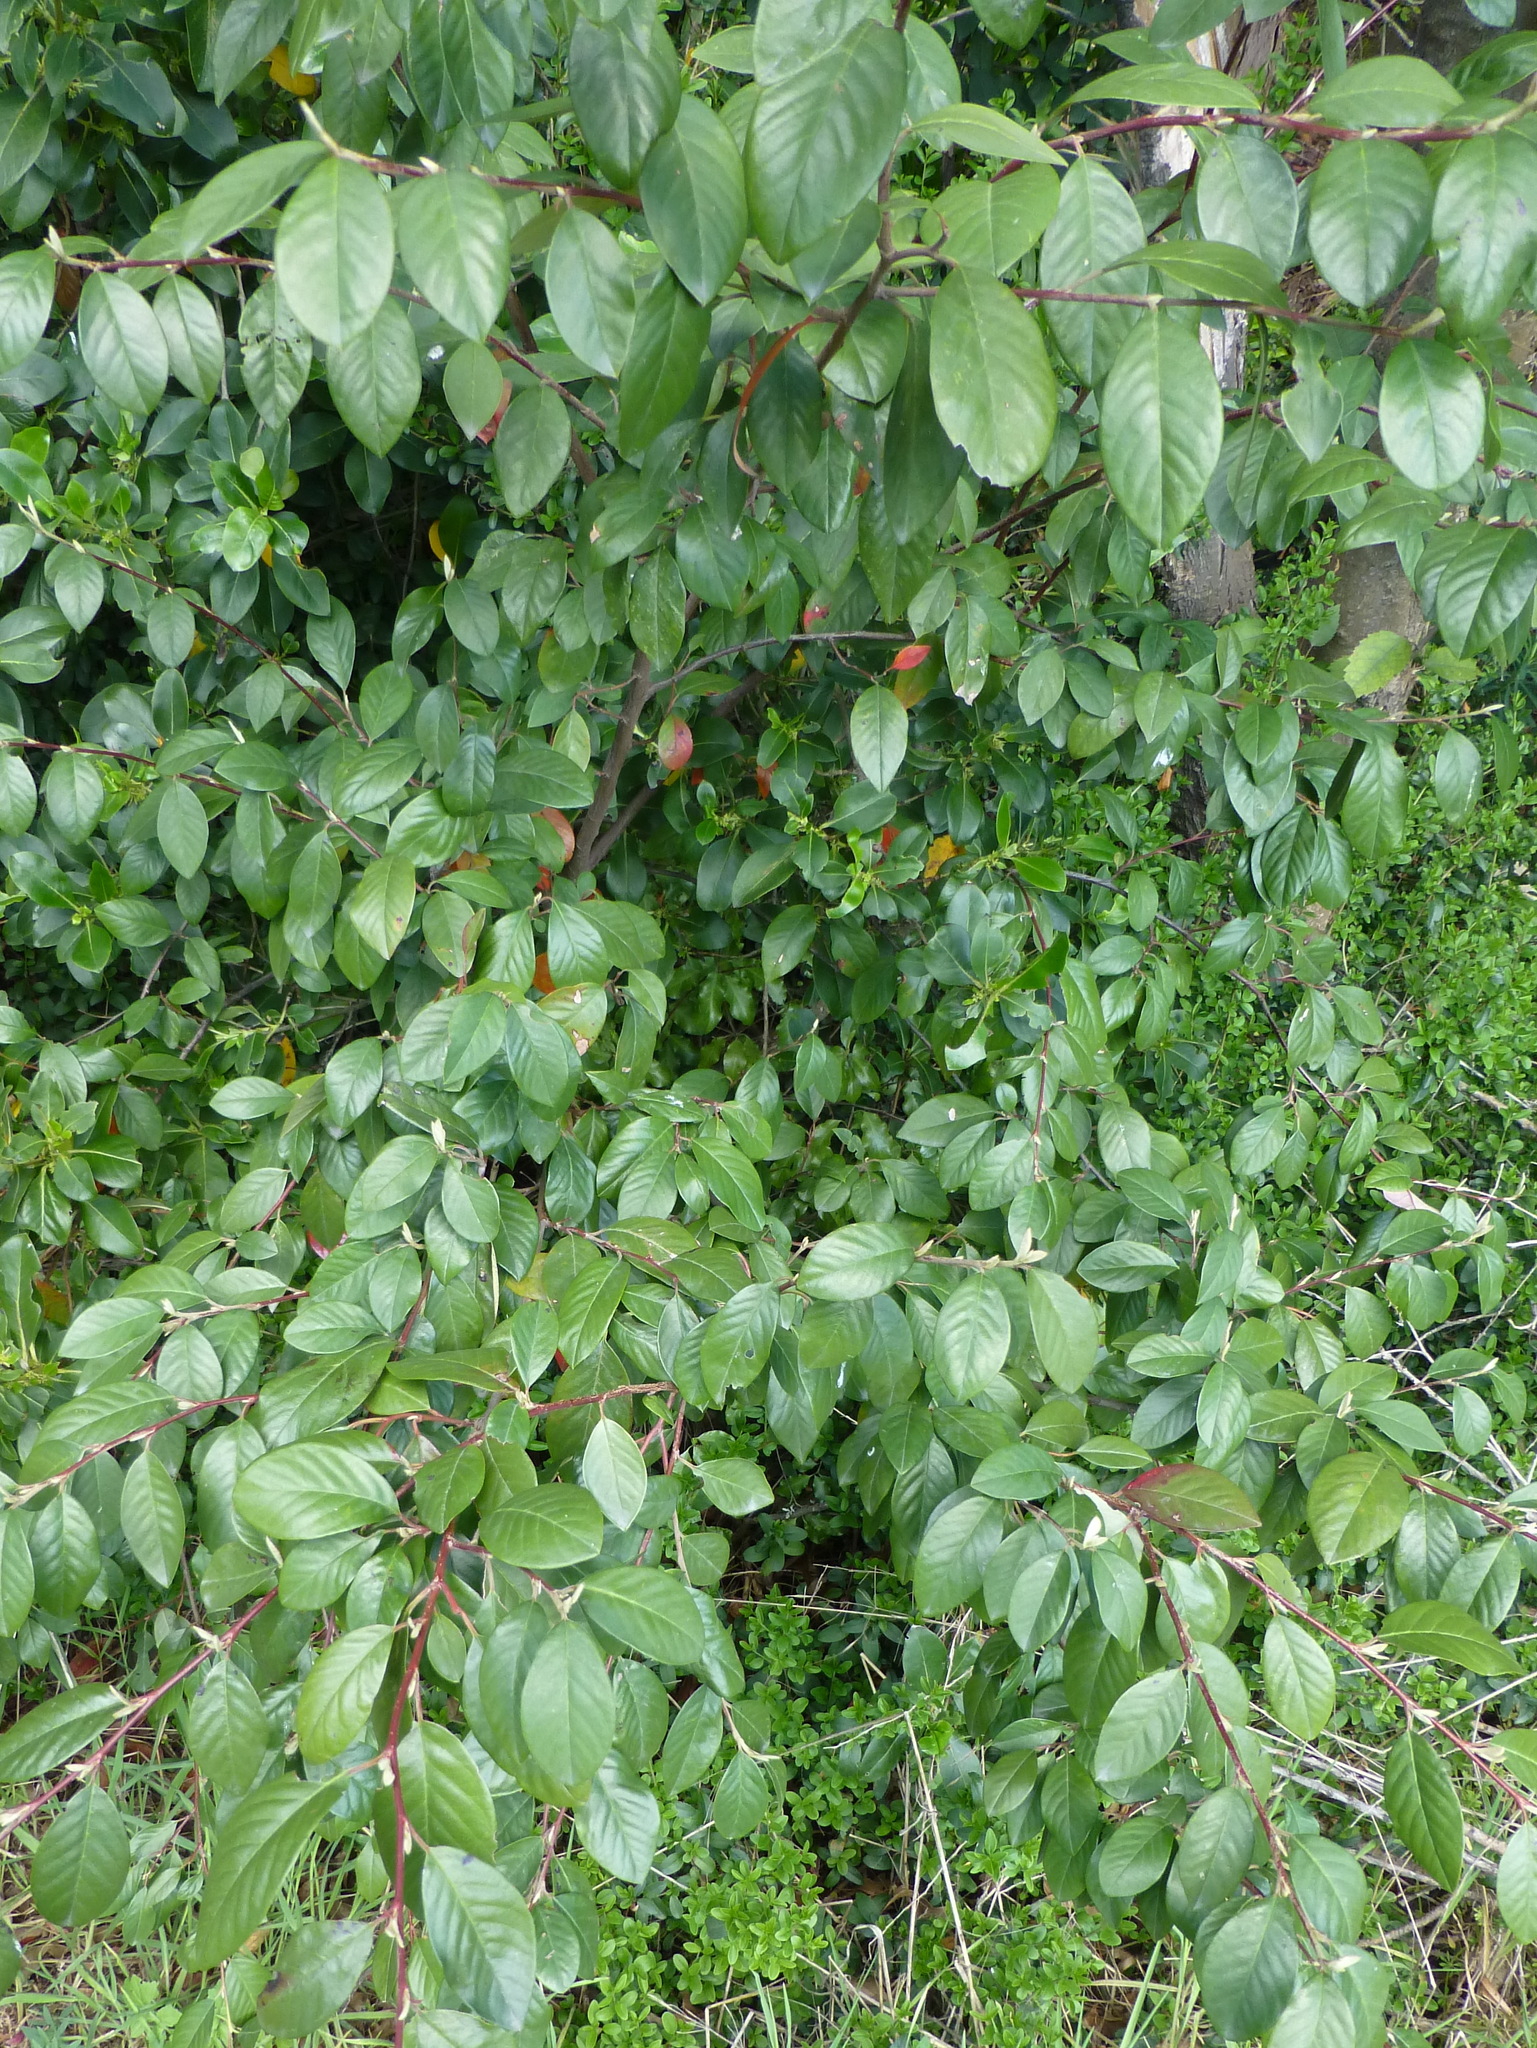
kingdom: Plantae
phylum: Tracheophyta
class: Magnoliopsida
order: Rosales
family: Rosaceae
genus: Cotoneaster
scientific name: Cotoneaster glaucophyllus
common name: Glaucous cotoneaster
